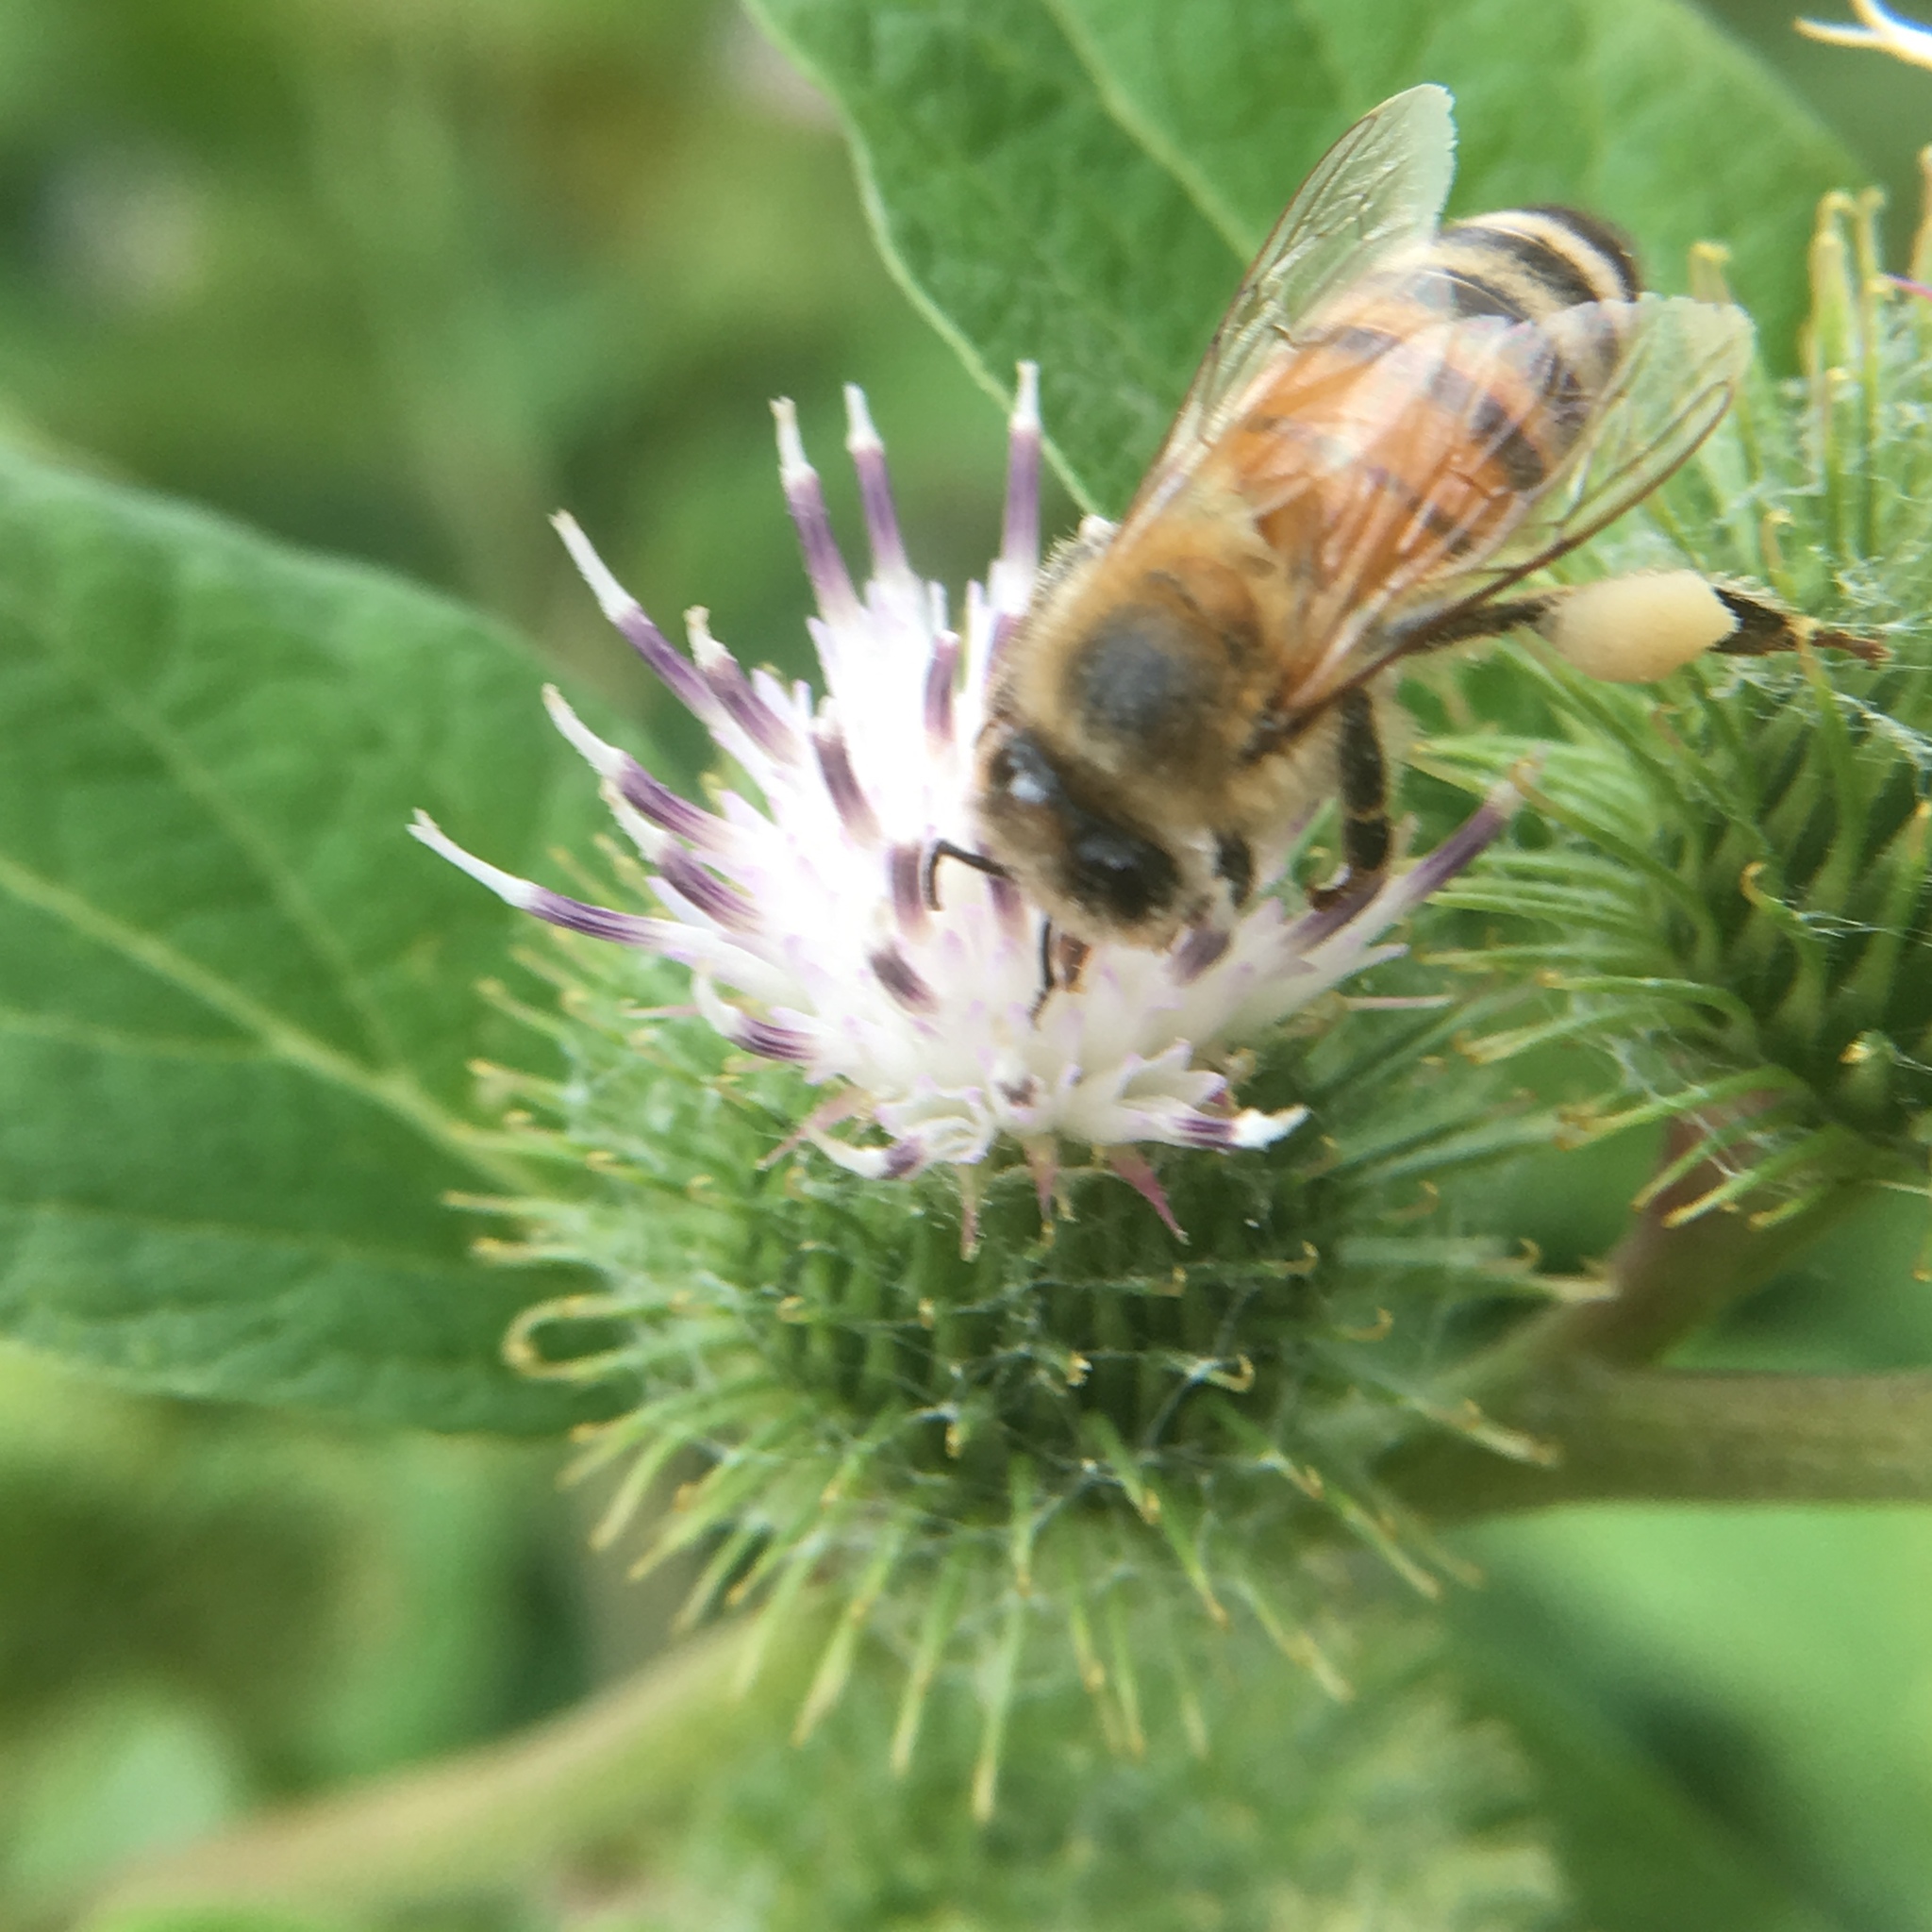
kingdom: Animalia
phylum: Arthropoda
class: Insecta
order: Hymenoptera
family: Apidae
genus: Apis
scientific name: Apis mellifera
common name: Honey bee
